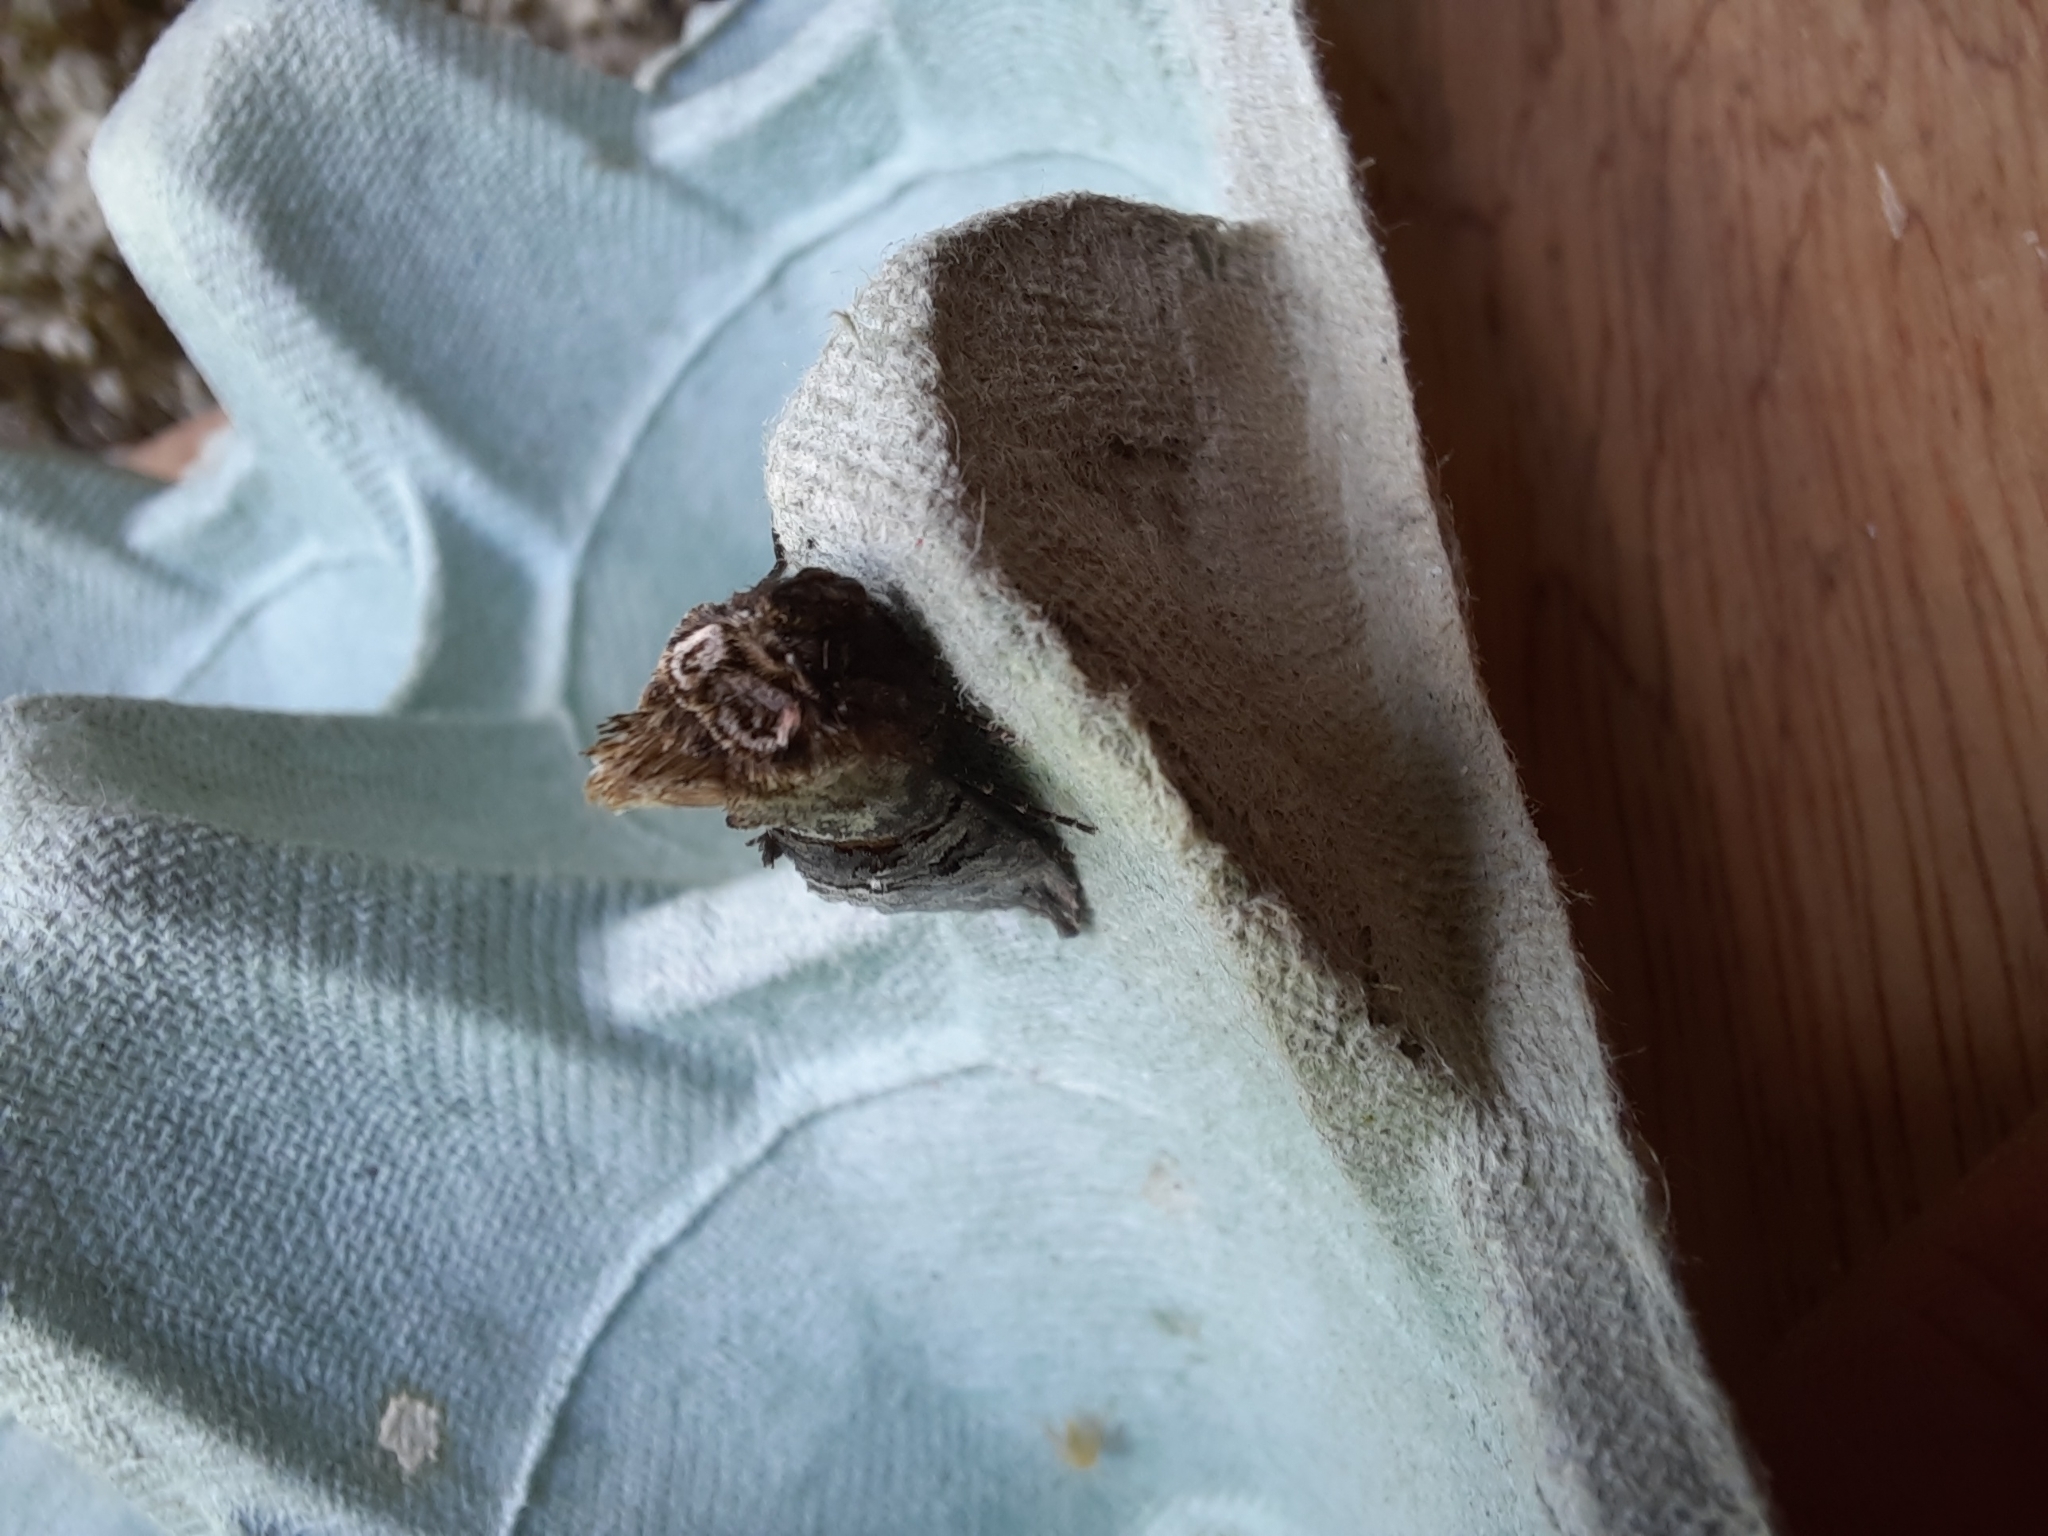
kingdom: Animalia
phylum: Arthropoda
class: Insecta
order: Lepidoptera
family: Noctuidae
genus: Abrostola
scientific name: Abrostola tripartita
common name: Spectacle
